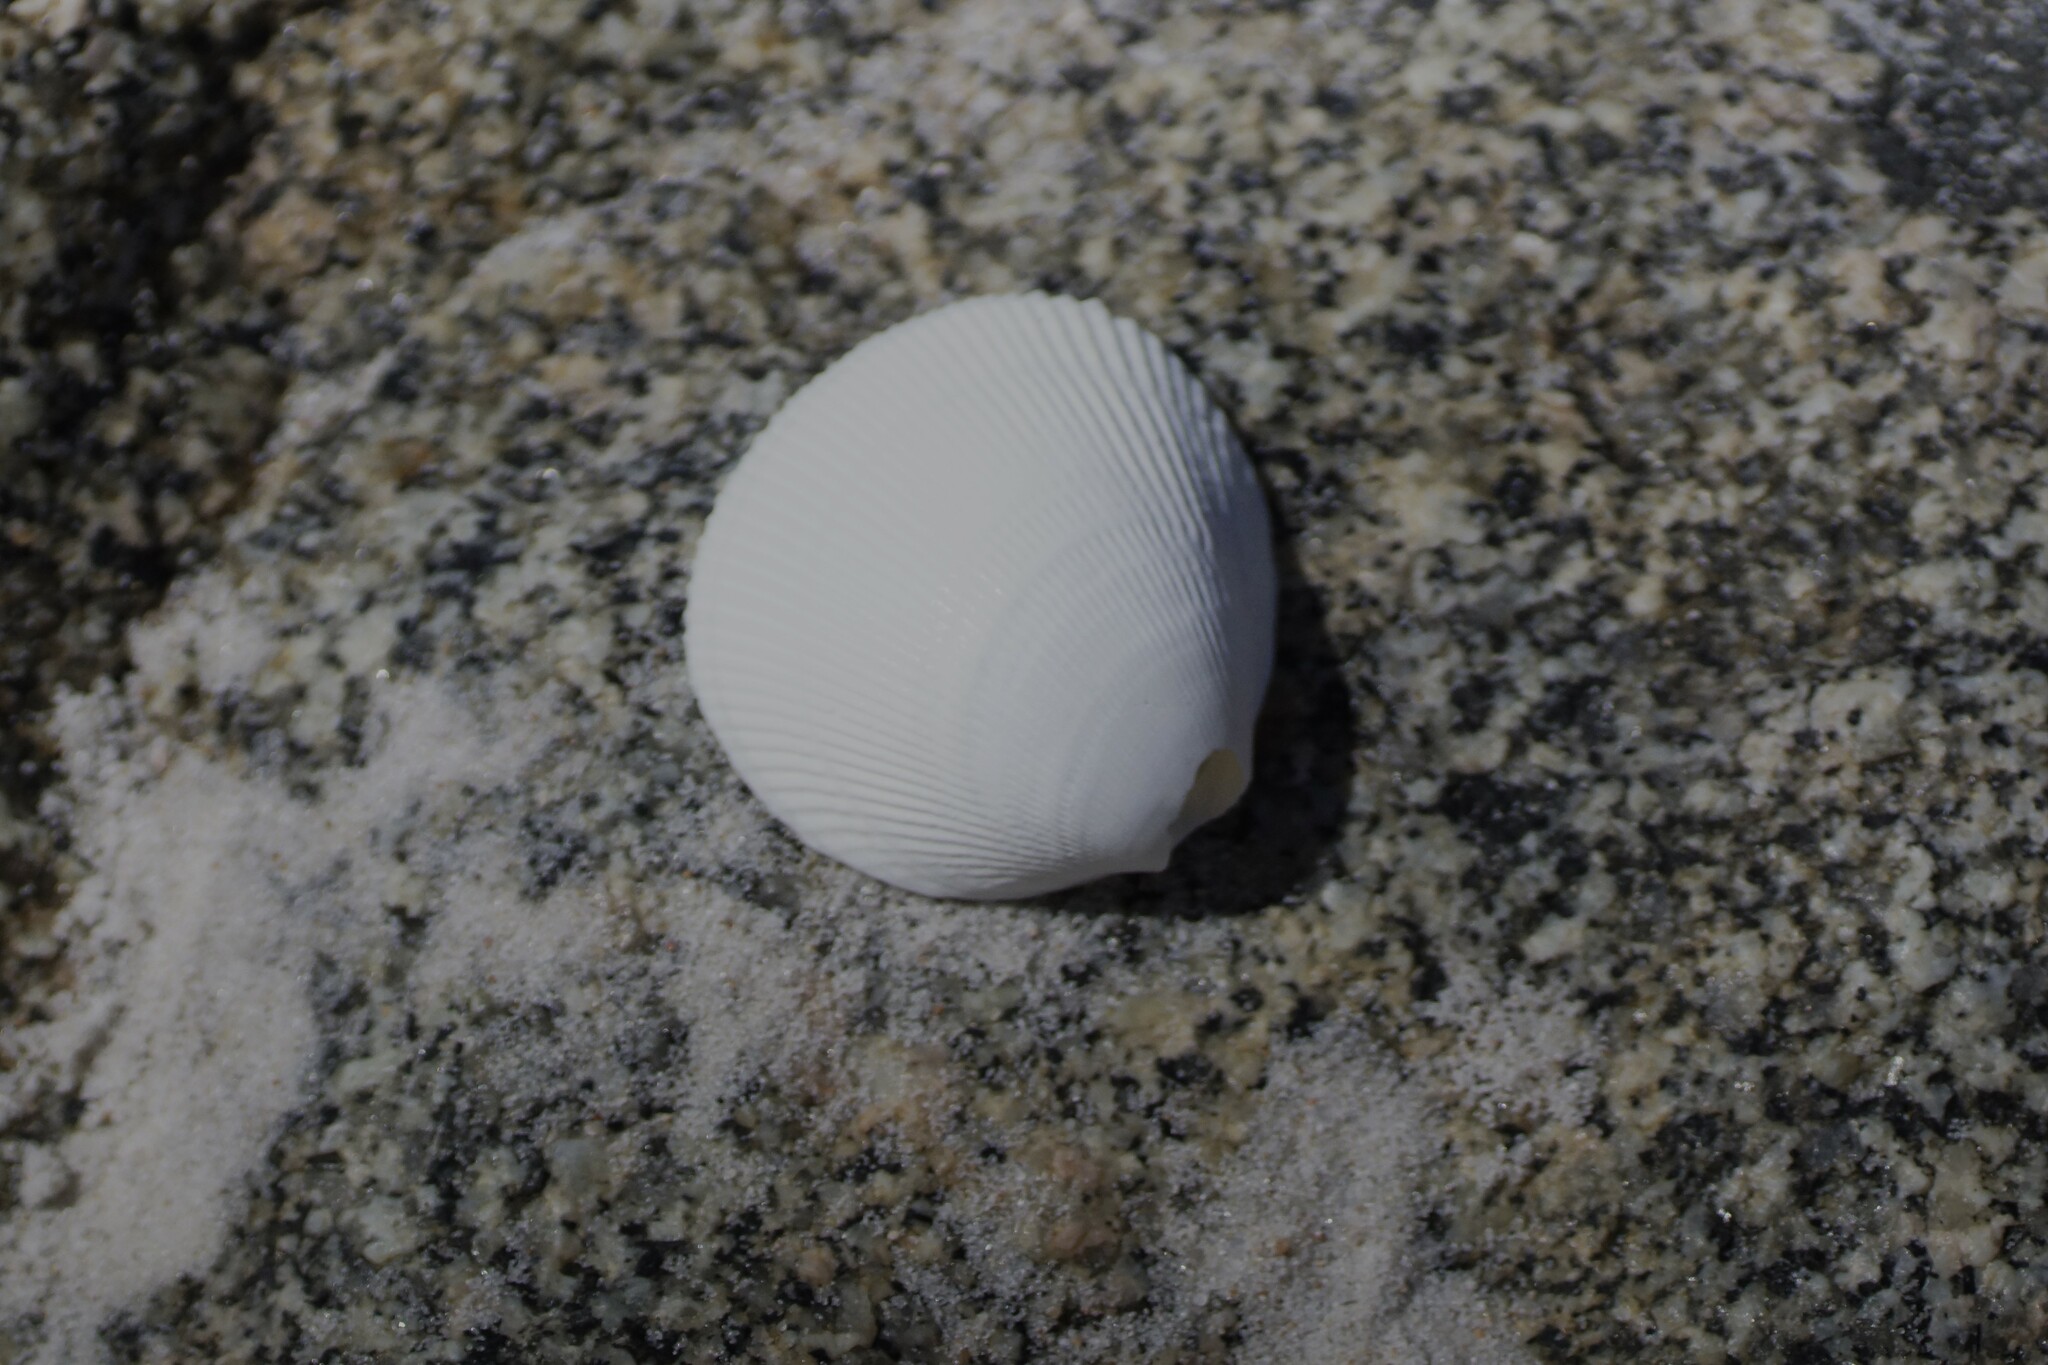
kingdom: Animalia
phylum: Mollusca
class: Bivalvia
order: Cardiida
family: Cardiidae
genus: Fulvia
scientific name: Fulvia tenuicostata
